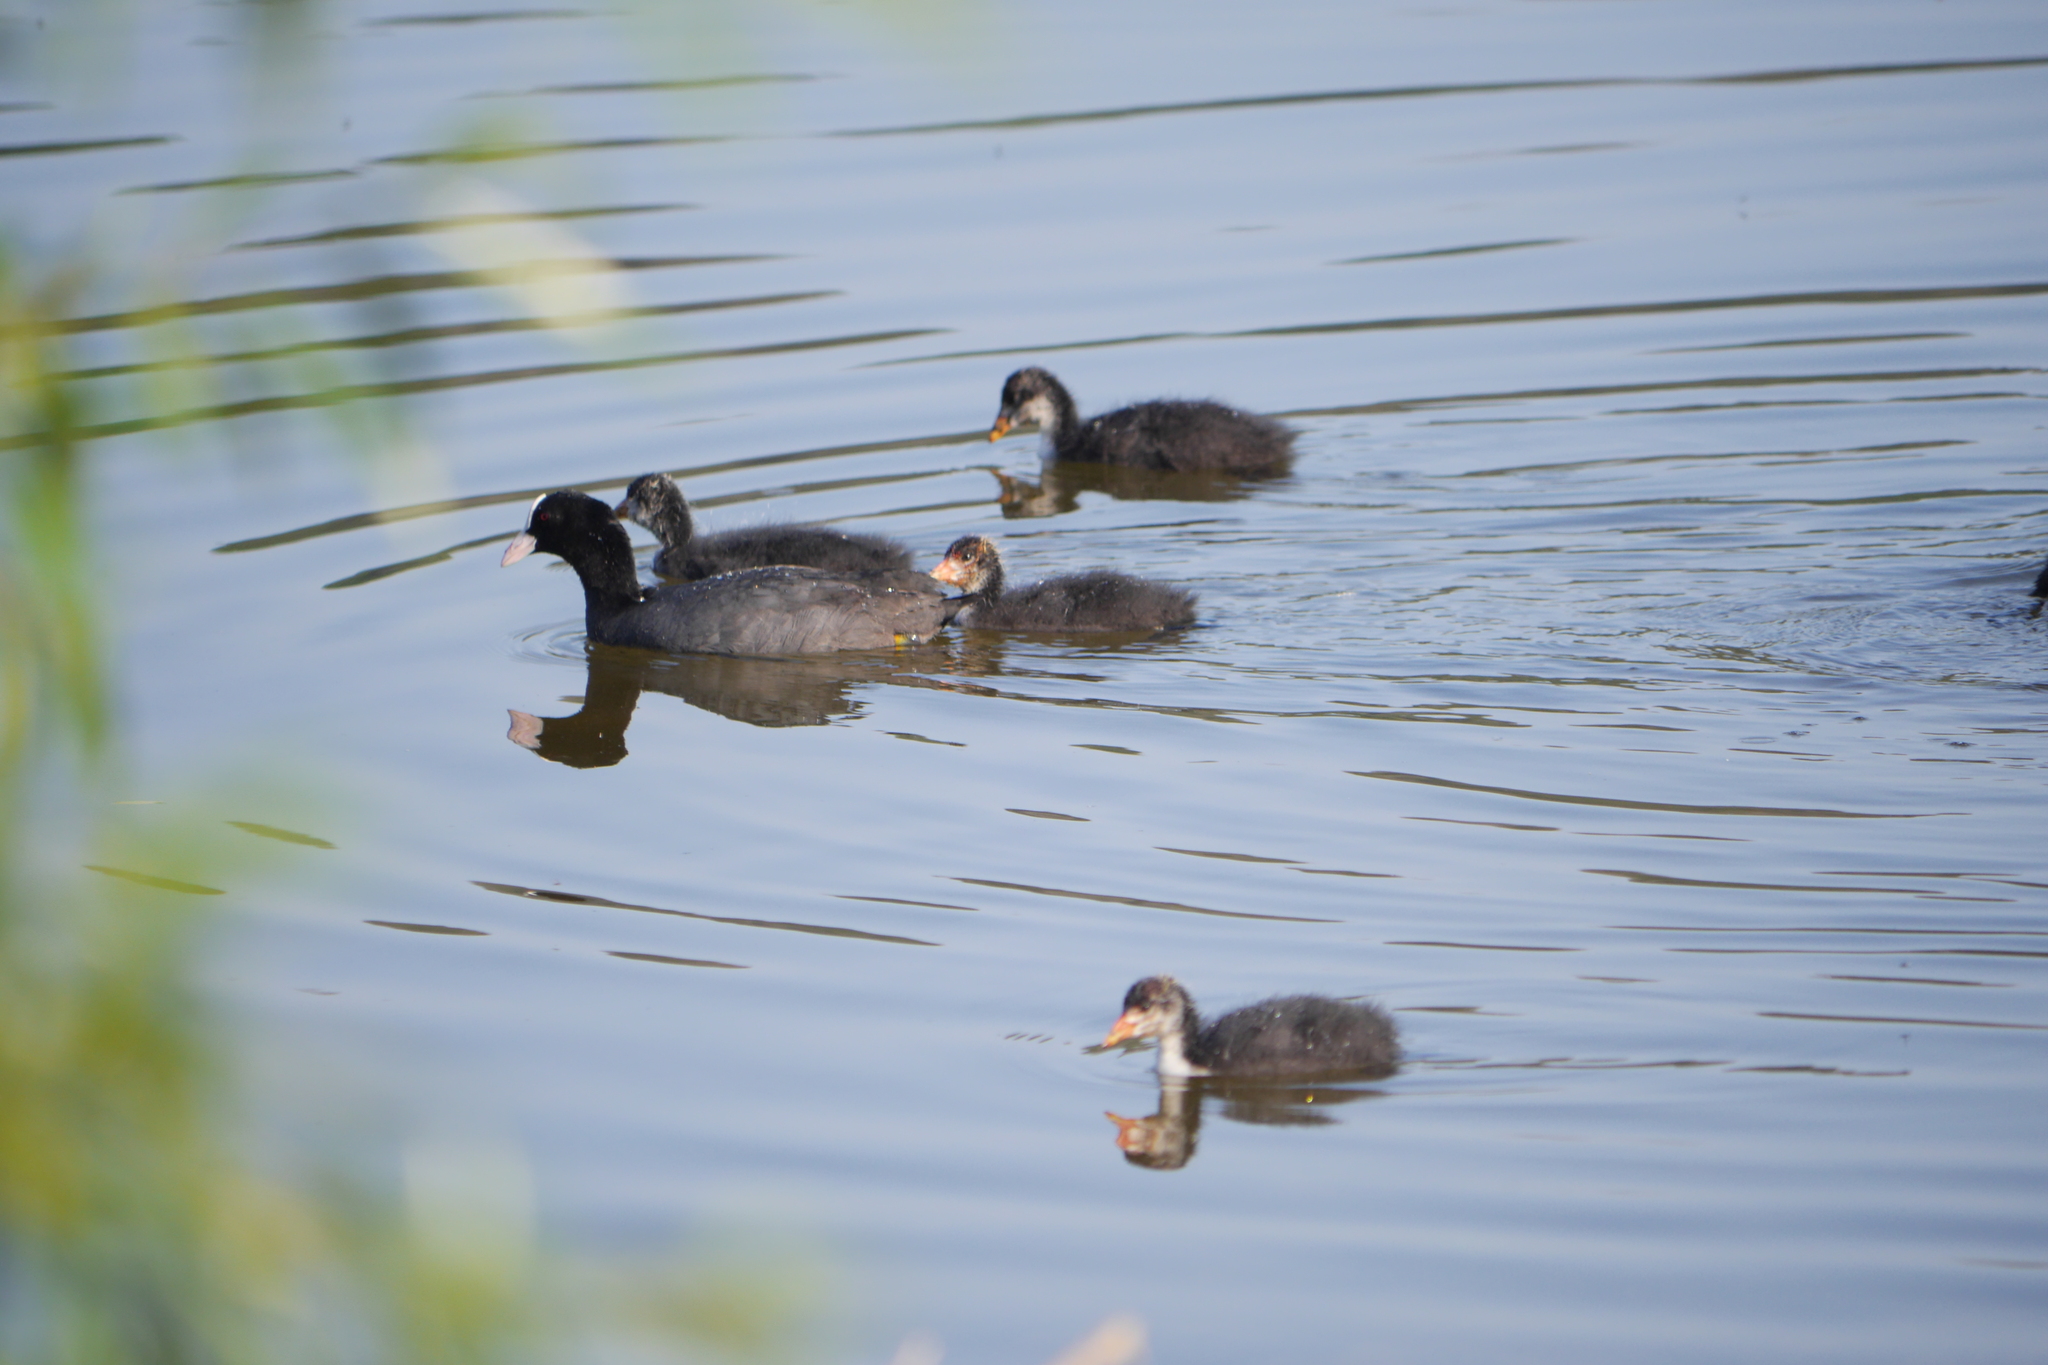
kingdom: Animalia
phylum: Chordata
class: Aves
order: Gruiformes
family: Rallidae
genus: Fulica
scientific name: Fulica atra
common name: Eurasian coot
